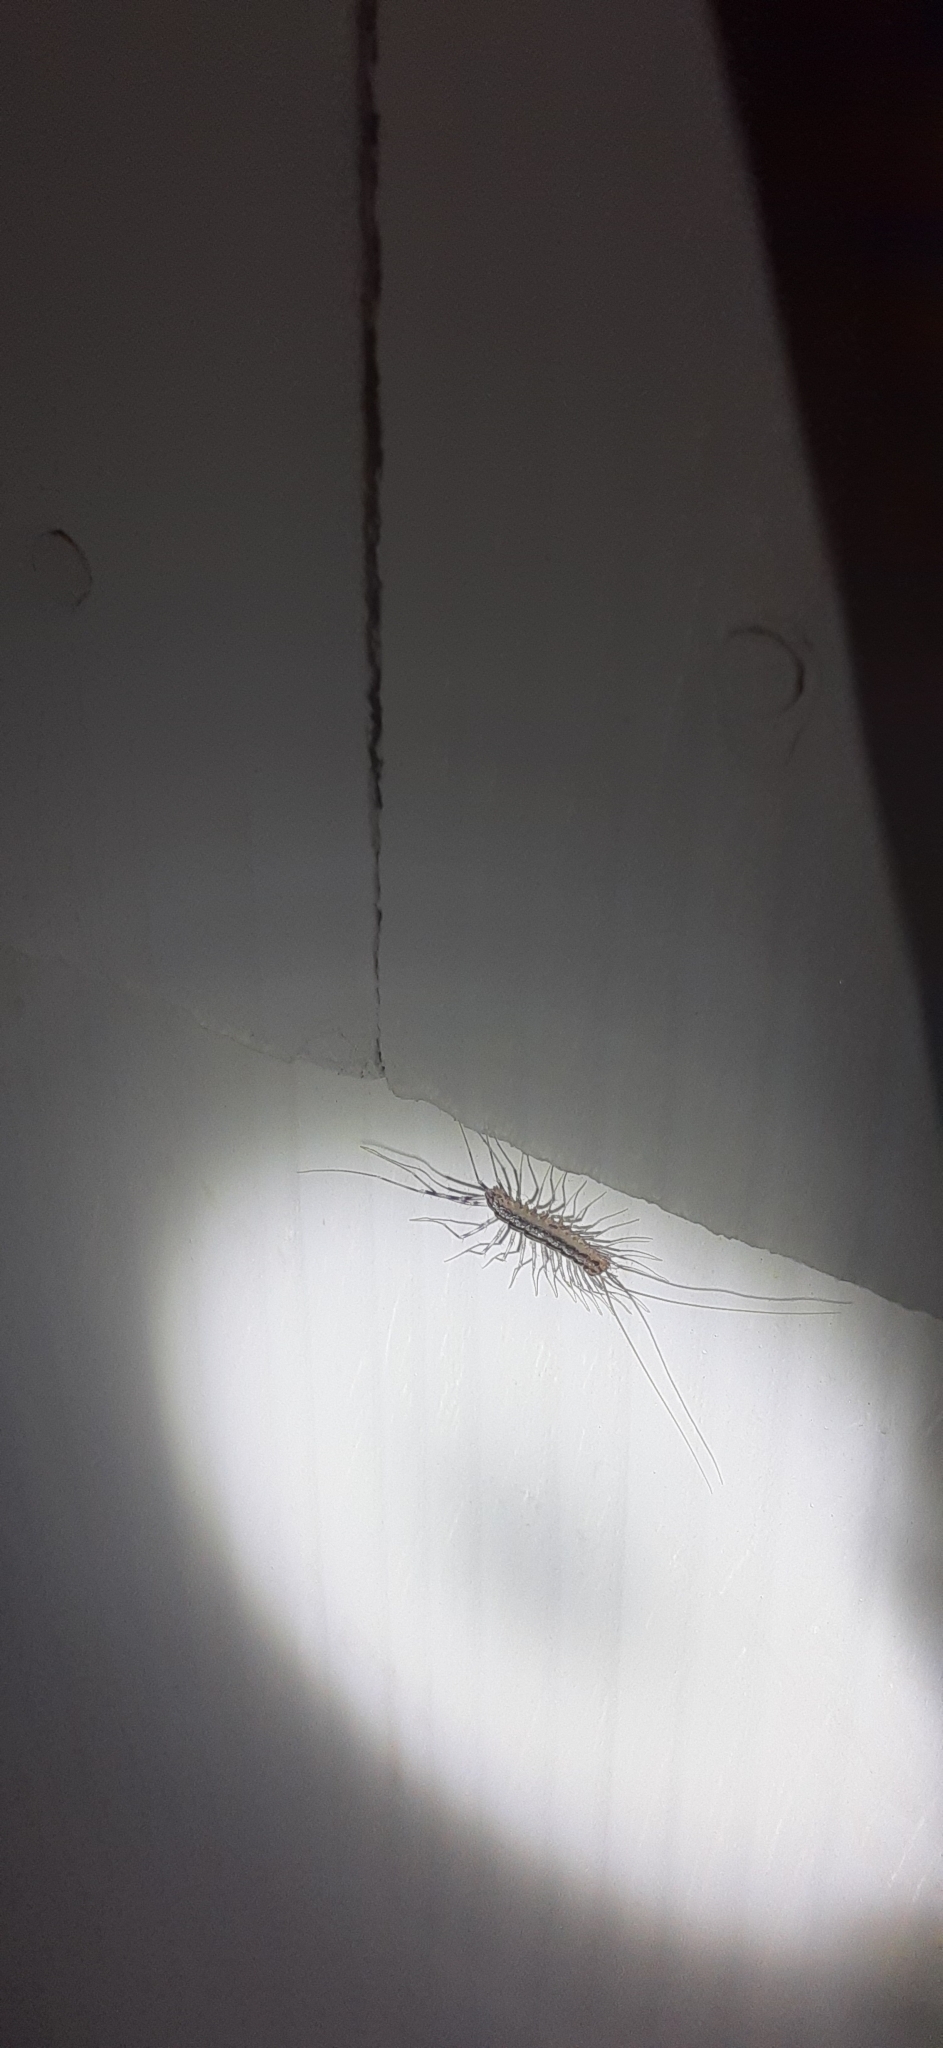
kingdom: Animalia
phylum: Arthropoda
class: Chilopoda
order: Scutigeromorpha
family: Scutigeridae
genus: Scutigera
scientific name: Scutigera coleoptrata
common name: House centipede
